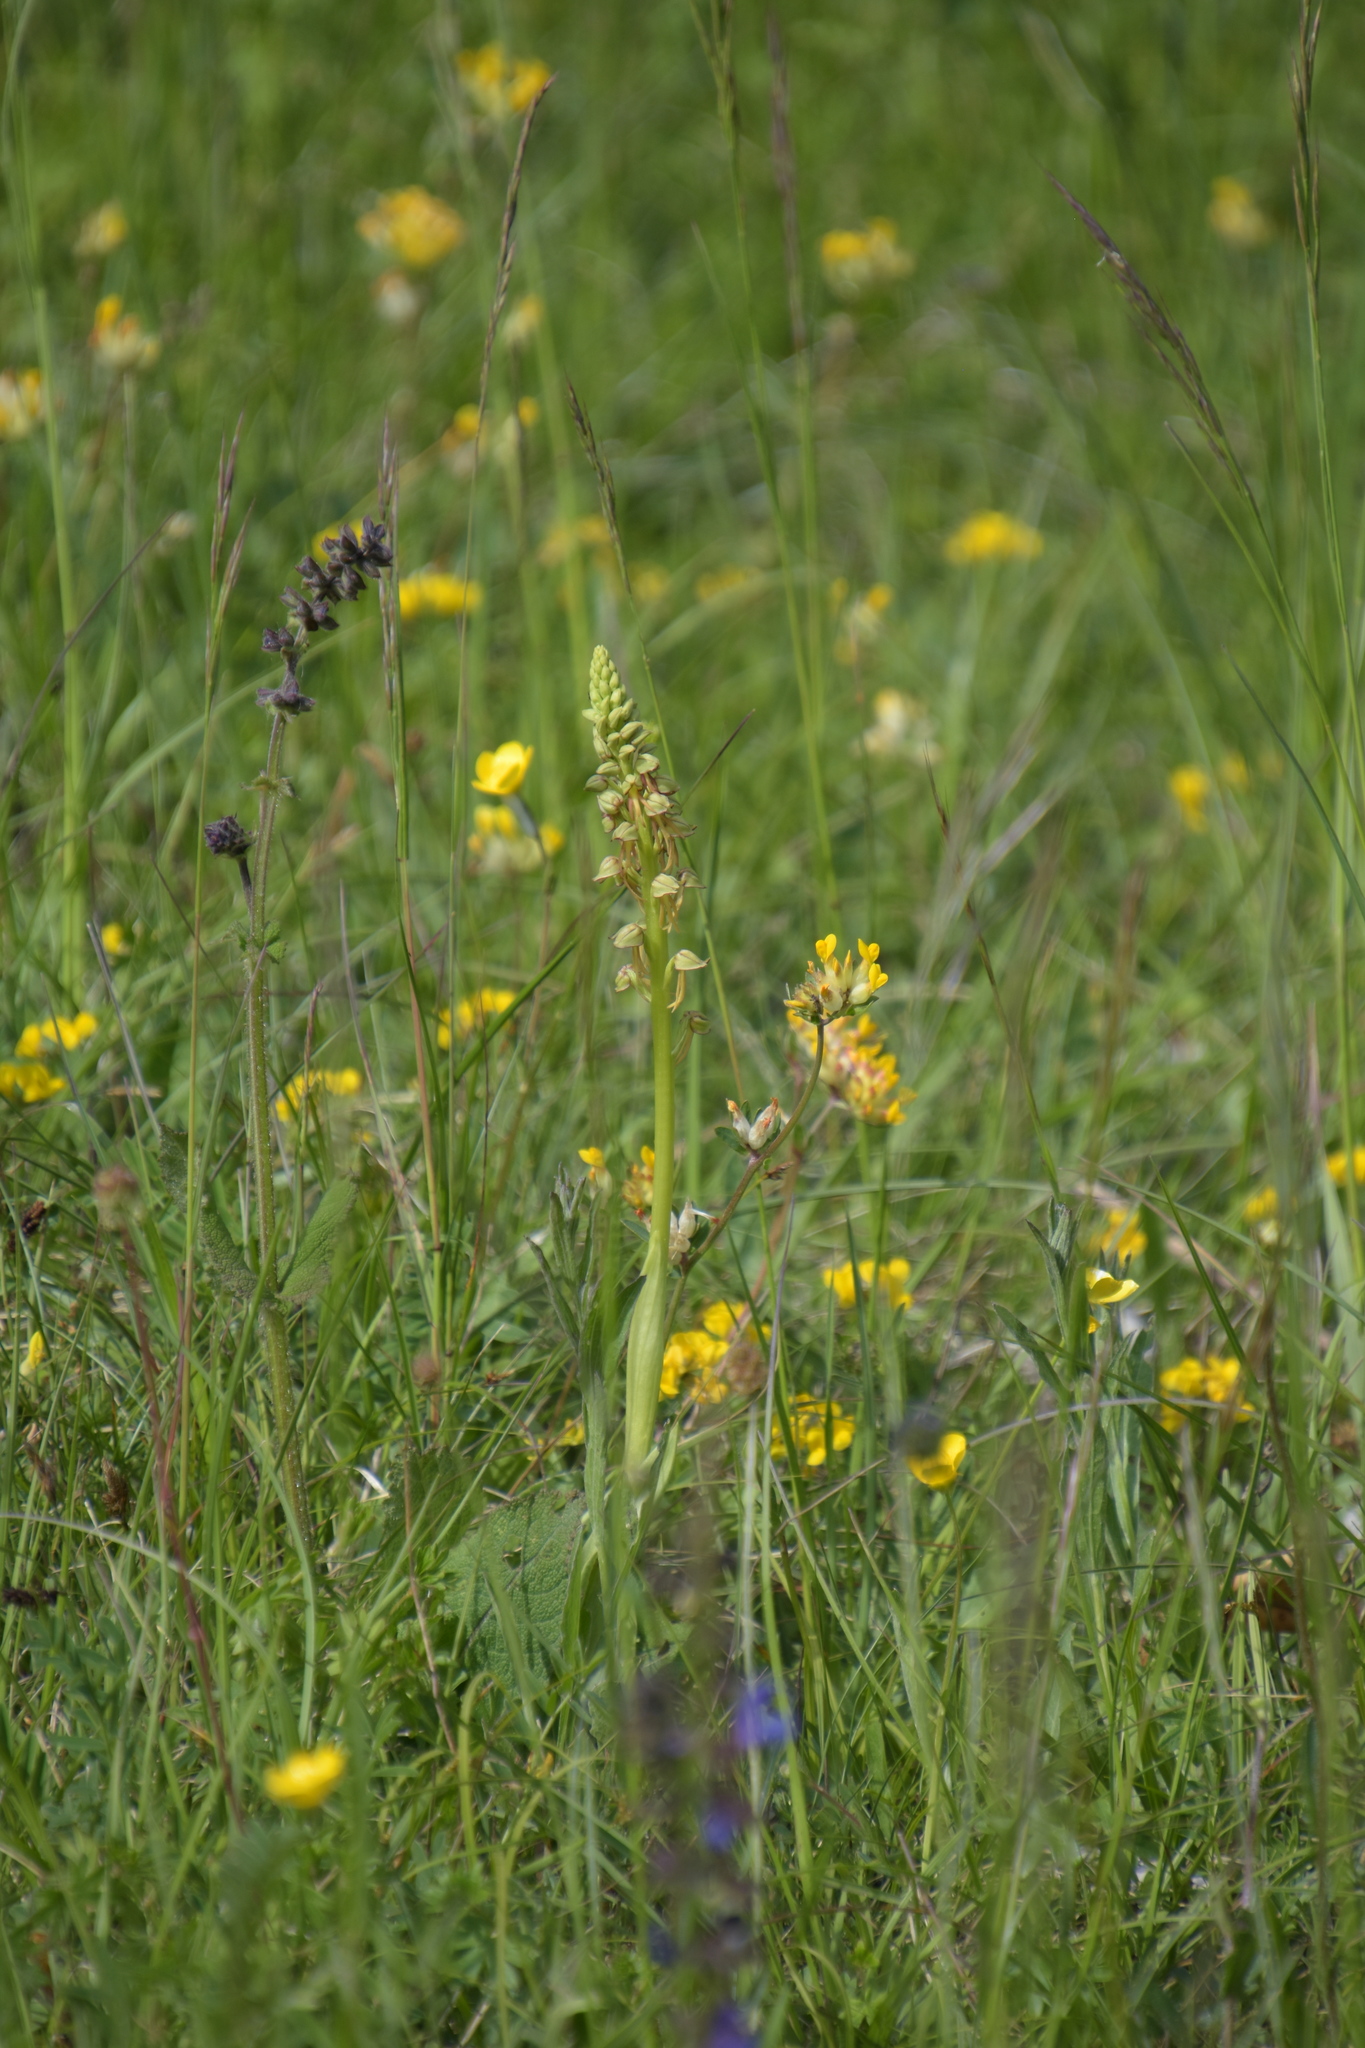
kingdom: Plantae
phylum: Tracheophyta
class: Liliopsida
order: Asparagales
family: Orchidaceae
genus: Orchis
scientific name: Orchis anthropophora
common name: Man orchid
